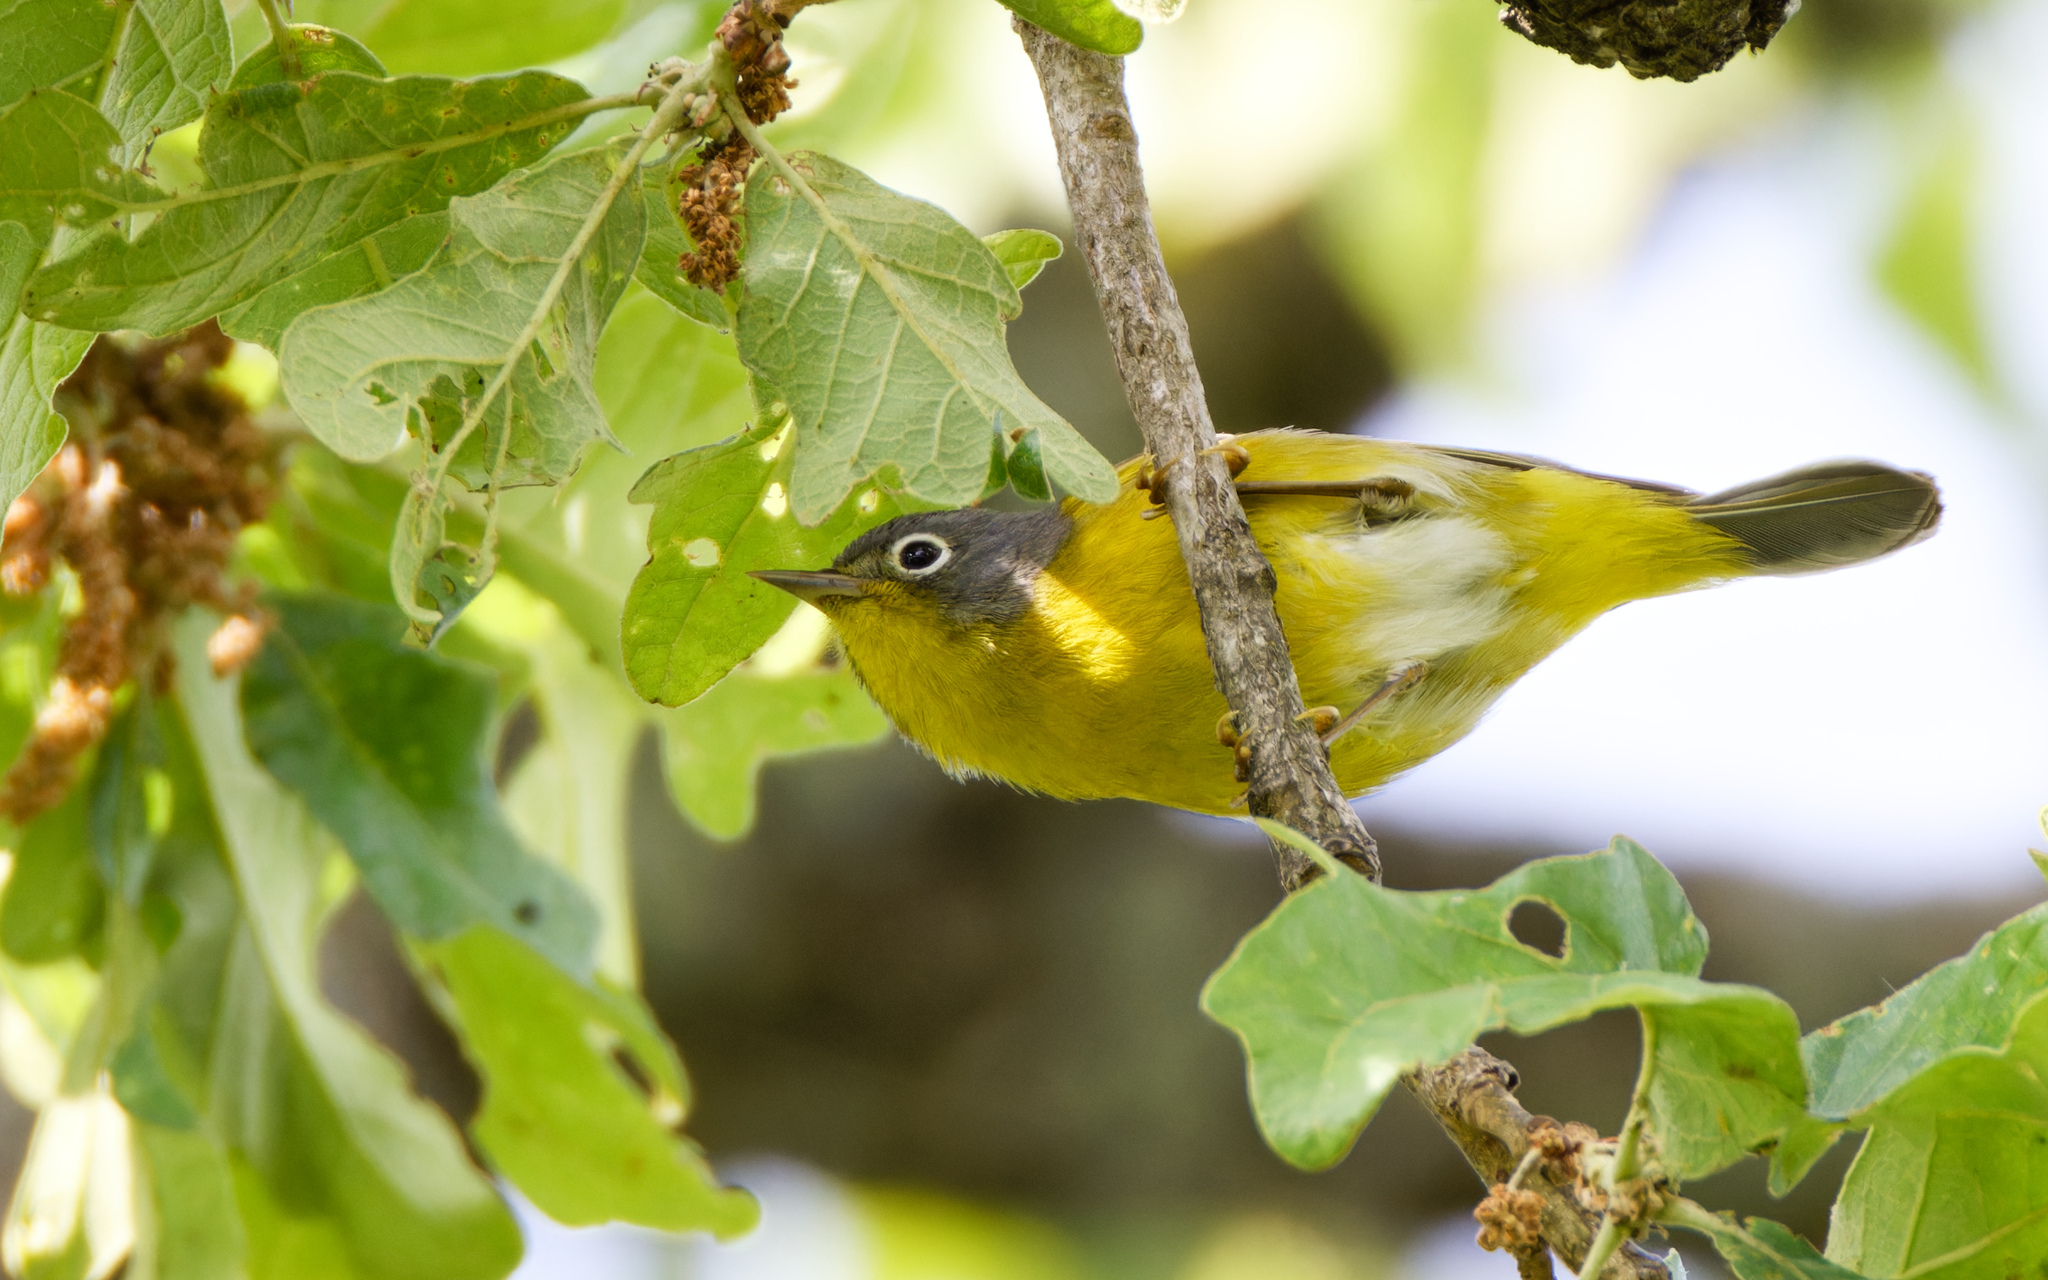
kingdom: Animalia
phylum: Chordata
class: Aves
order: Passeriformes
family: Parulidae
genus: Leiothlypis
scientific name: Leiothlypis ruficapilla
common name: Nashville warbler
